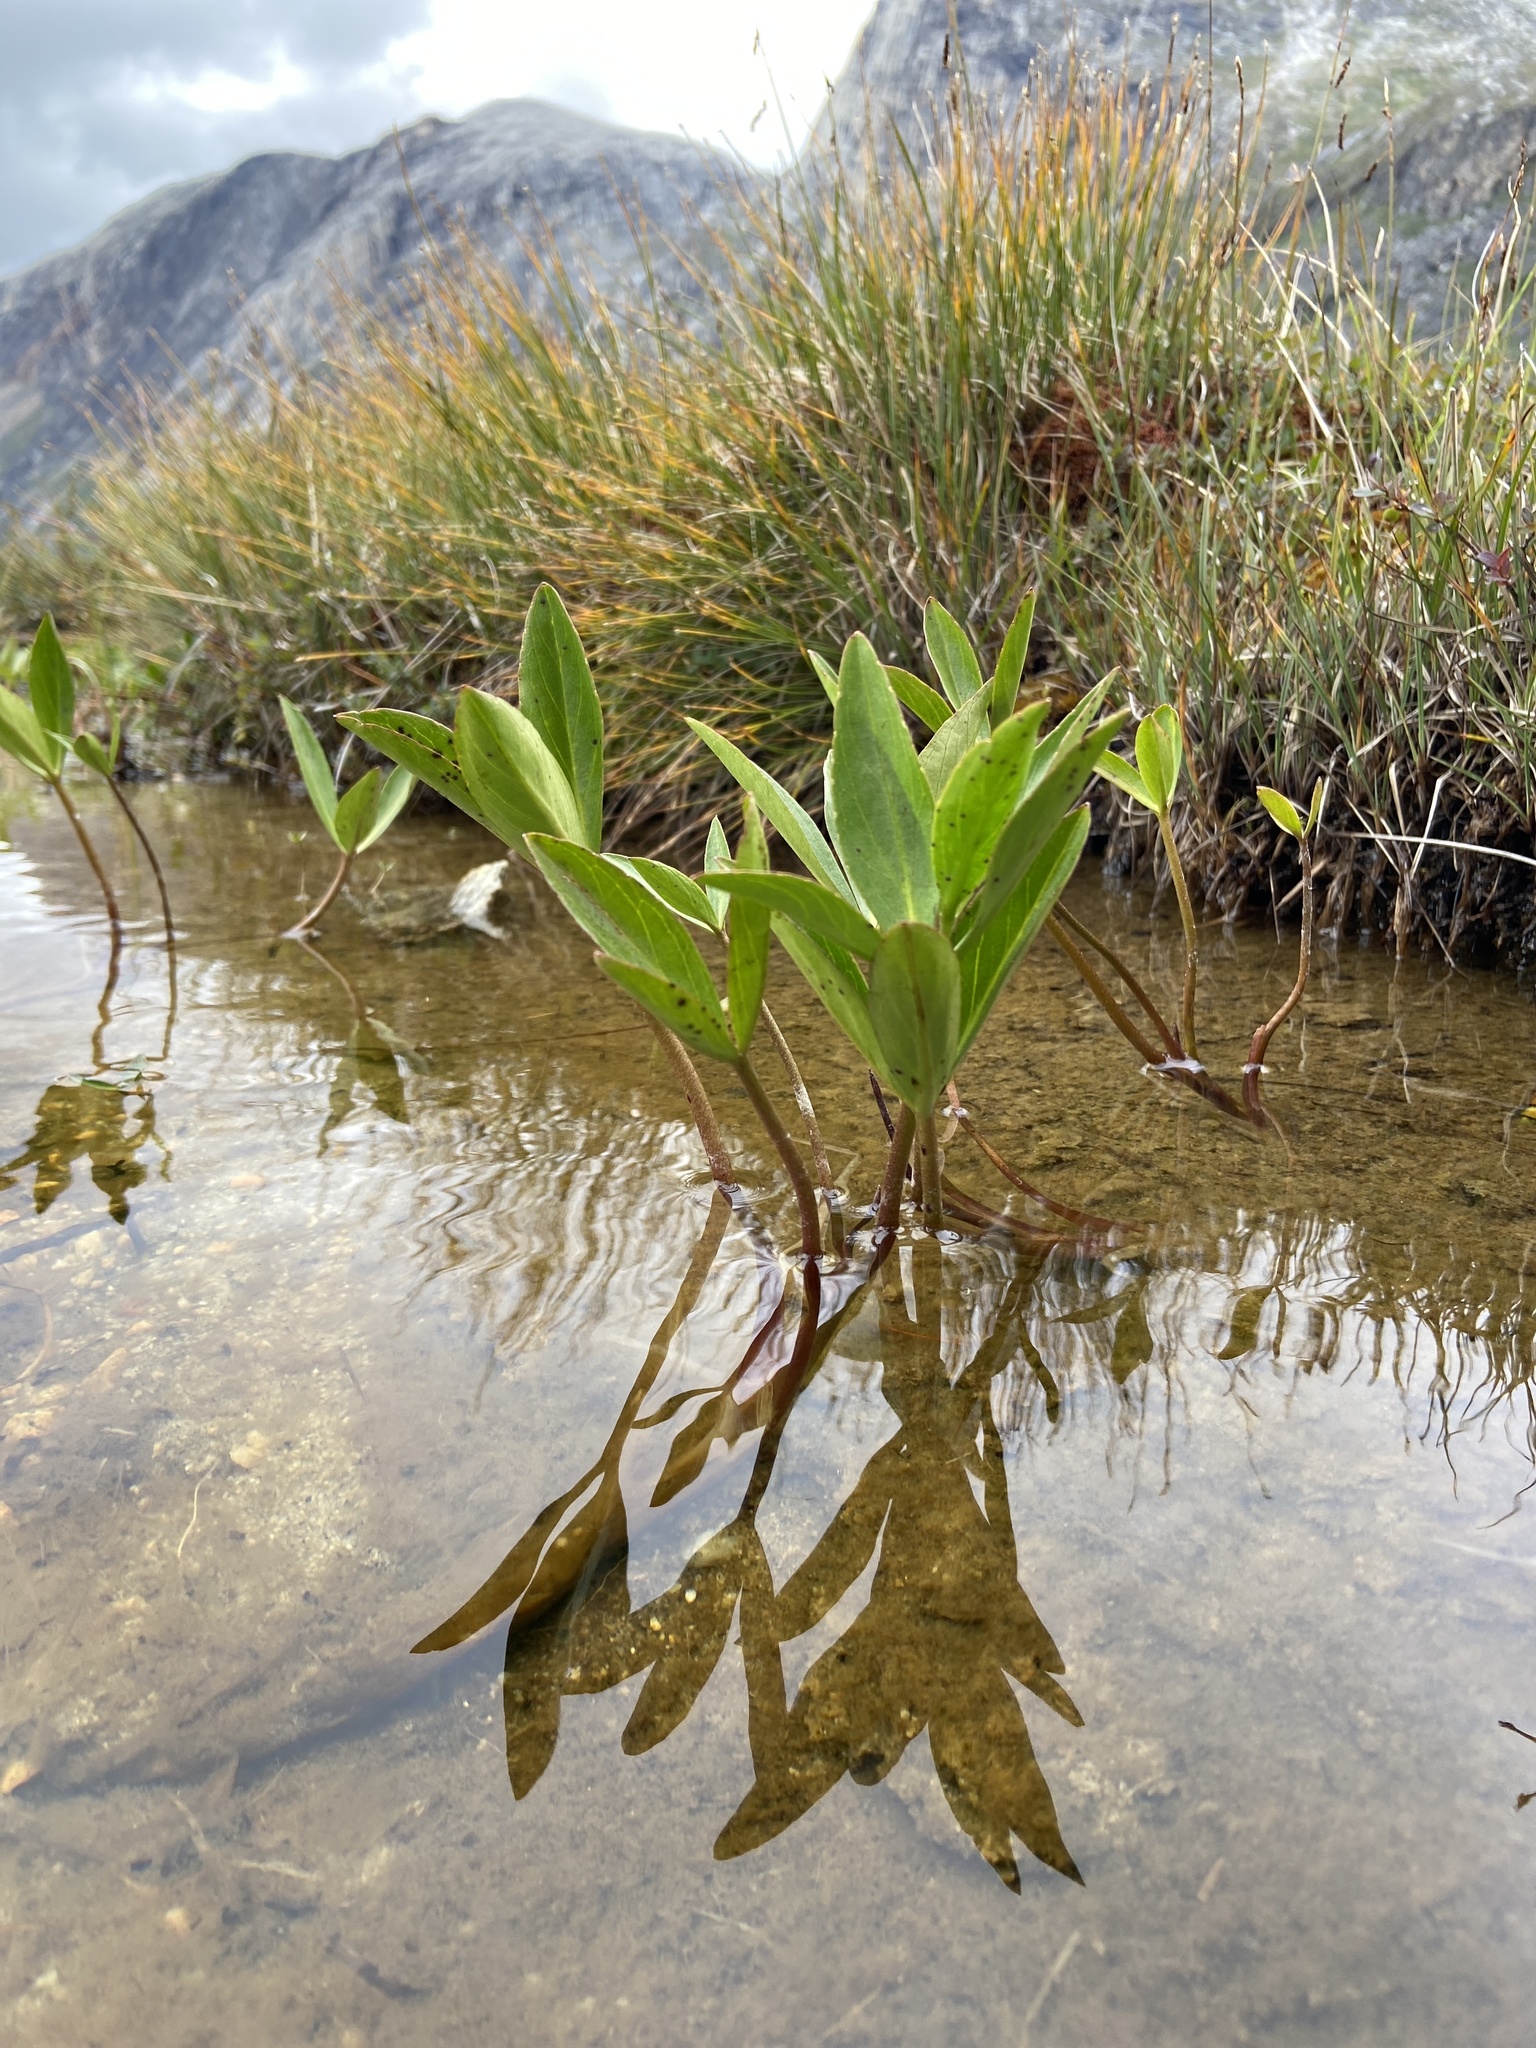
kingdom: Plantae
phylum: Tracheophyta
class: Magnoliopsida
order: Asterales
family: Menyanthaceae
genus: Menyanthes
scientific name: Menyanthes trifoliata
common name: Bogbean
